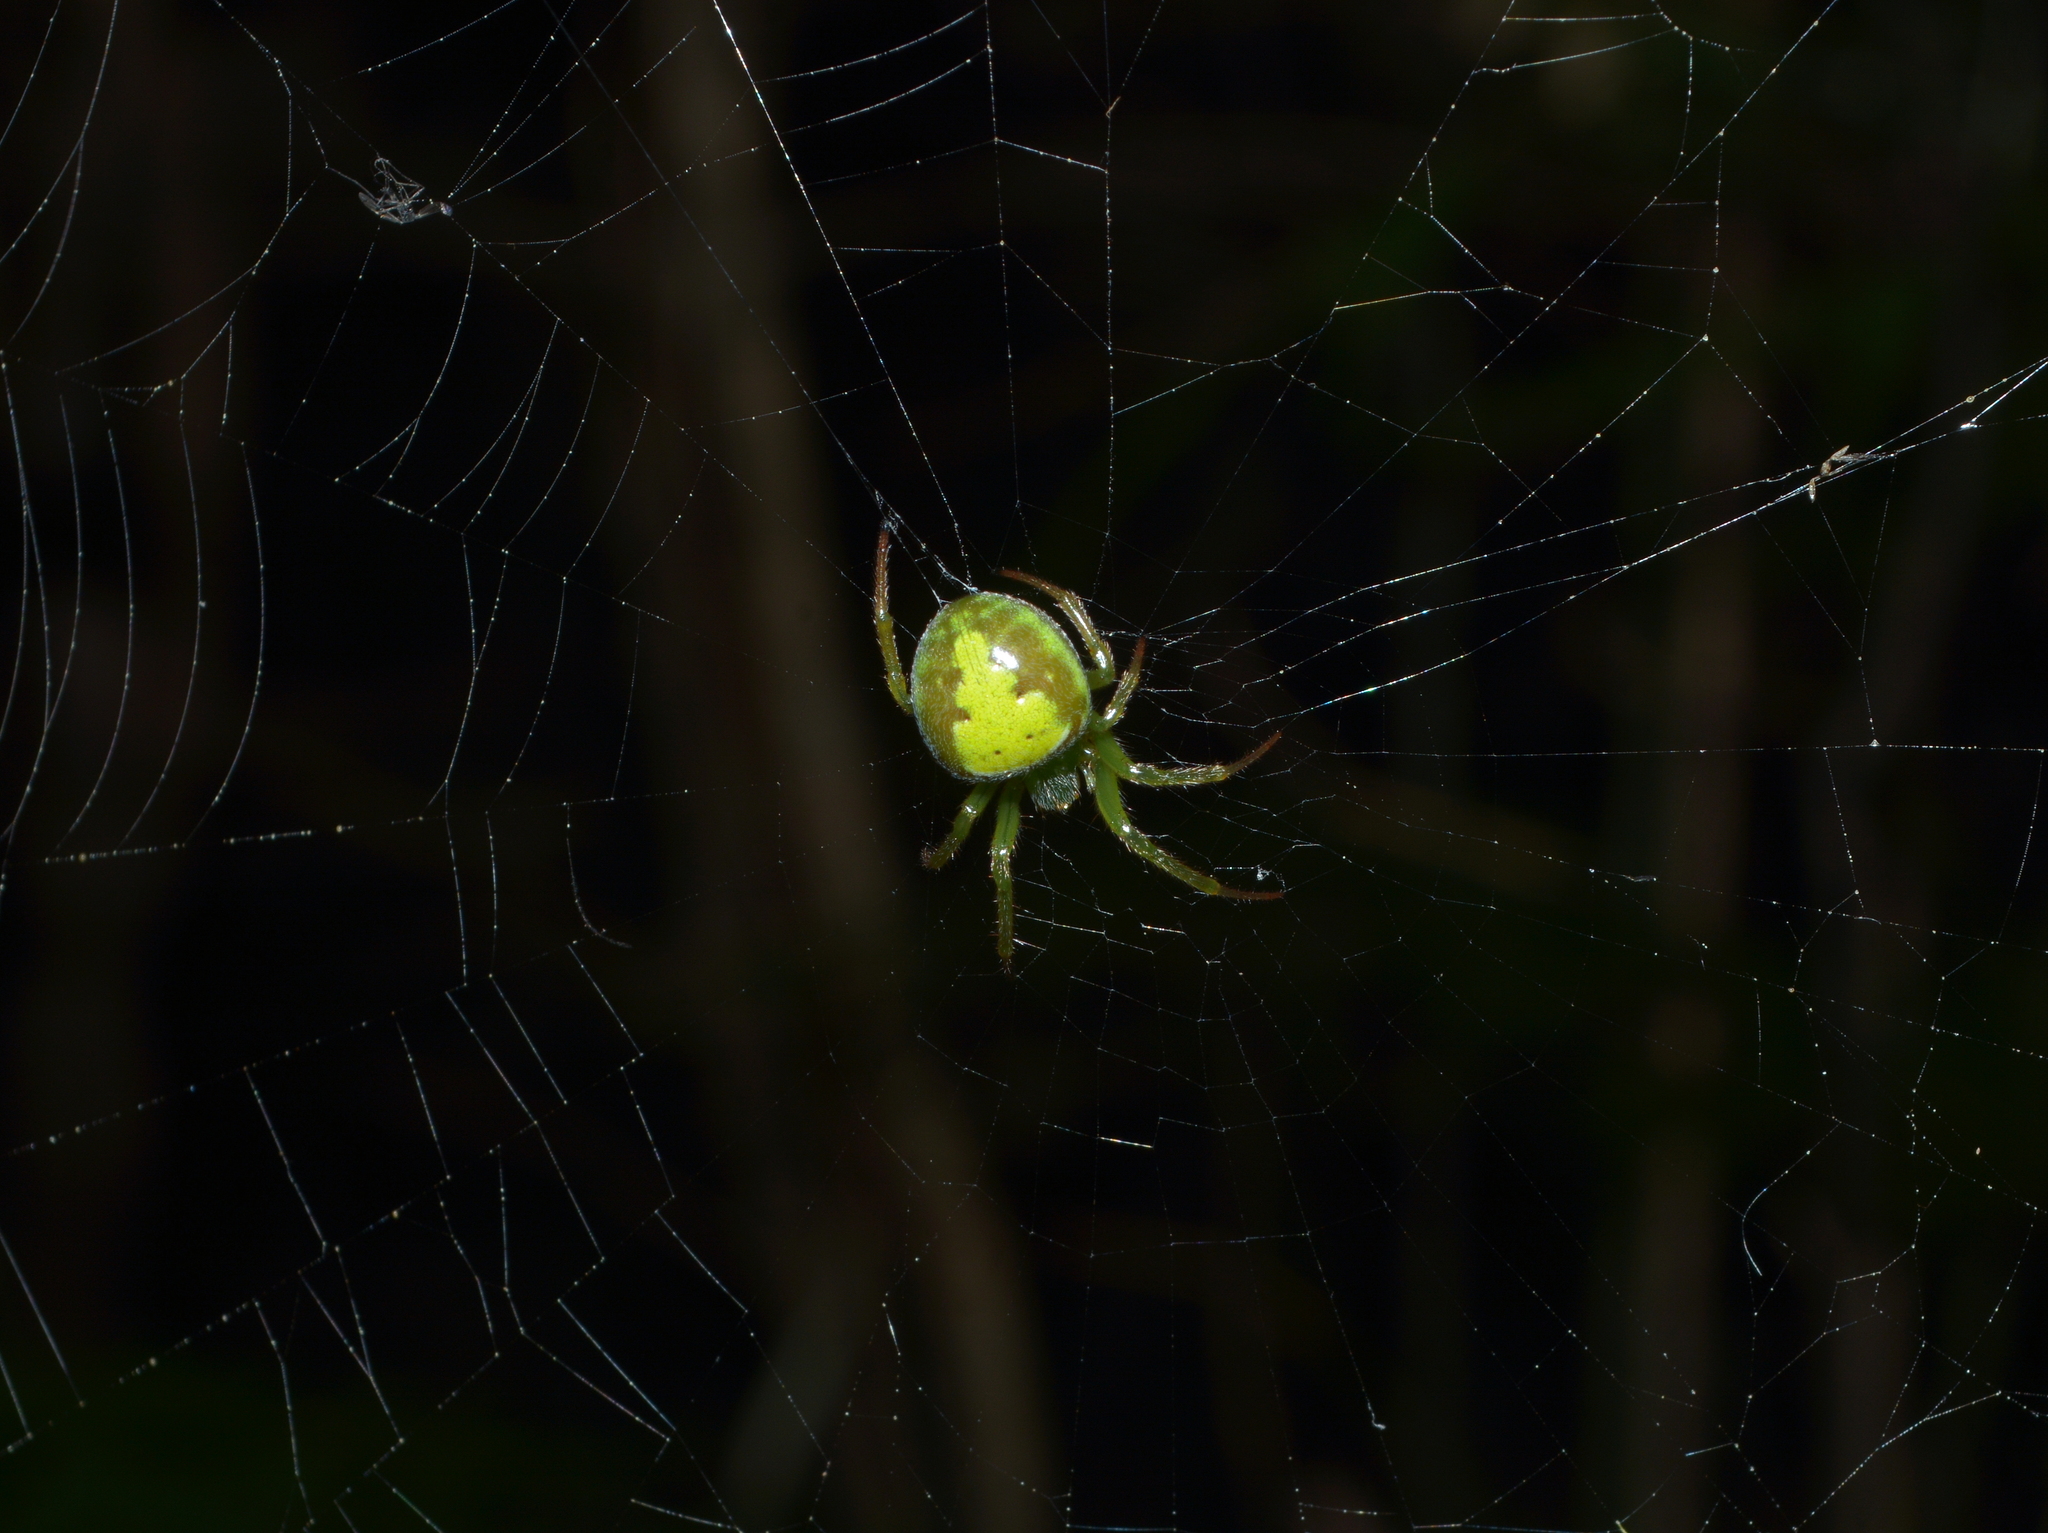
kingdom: Animalia
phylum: Arthropoda
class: Arachnida
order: Araneae
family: Araneidae
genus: Araneus
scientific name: Araneus unanimus
